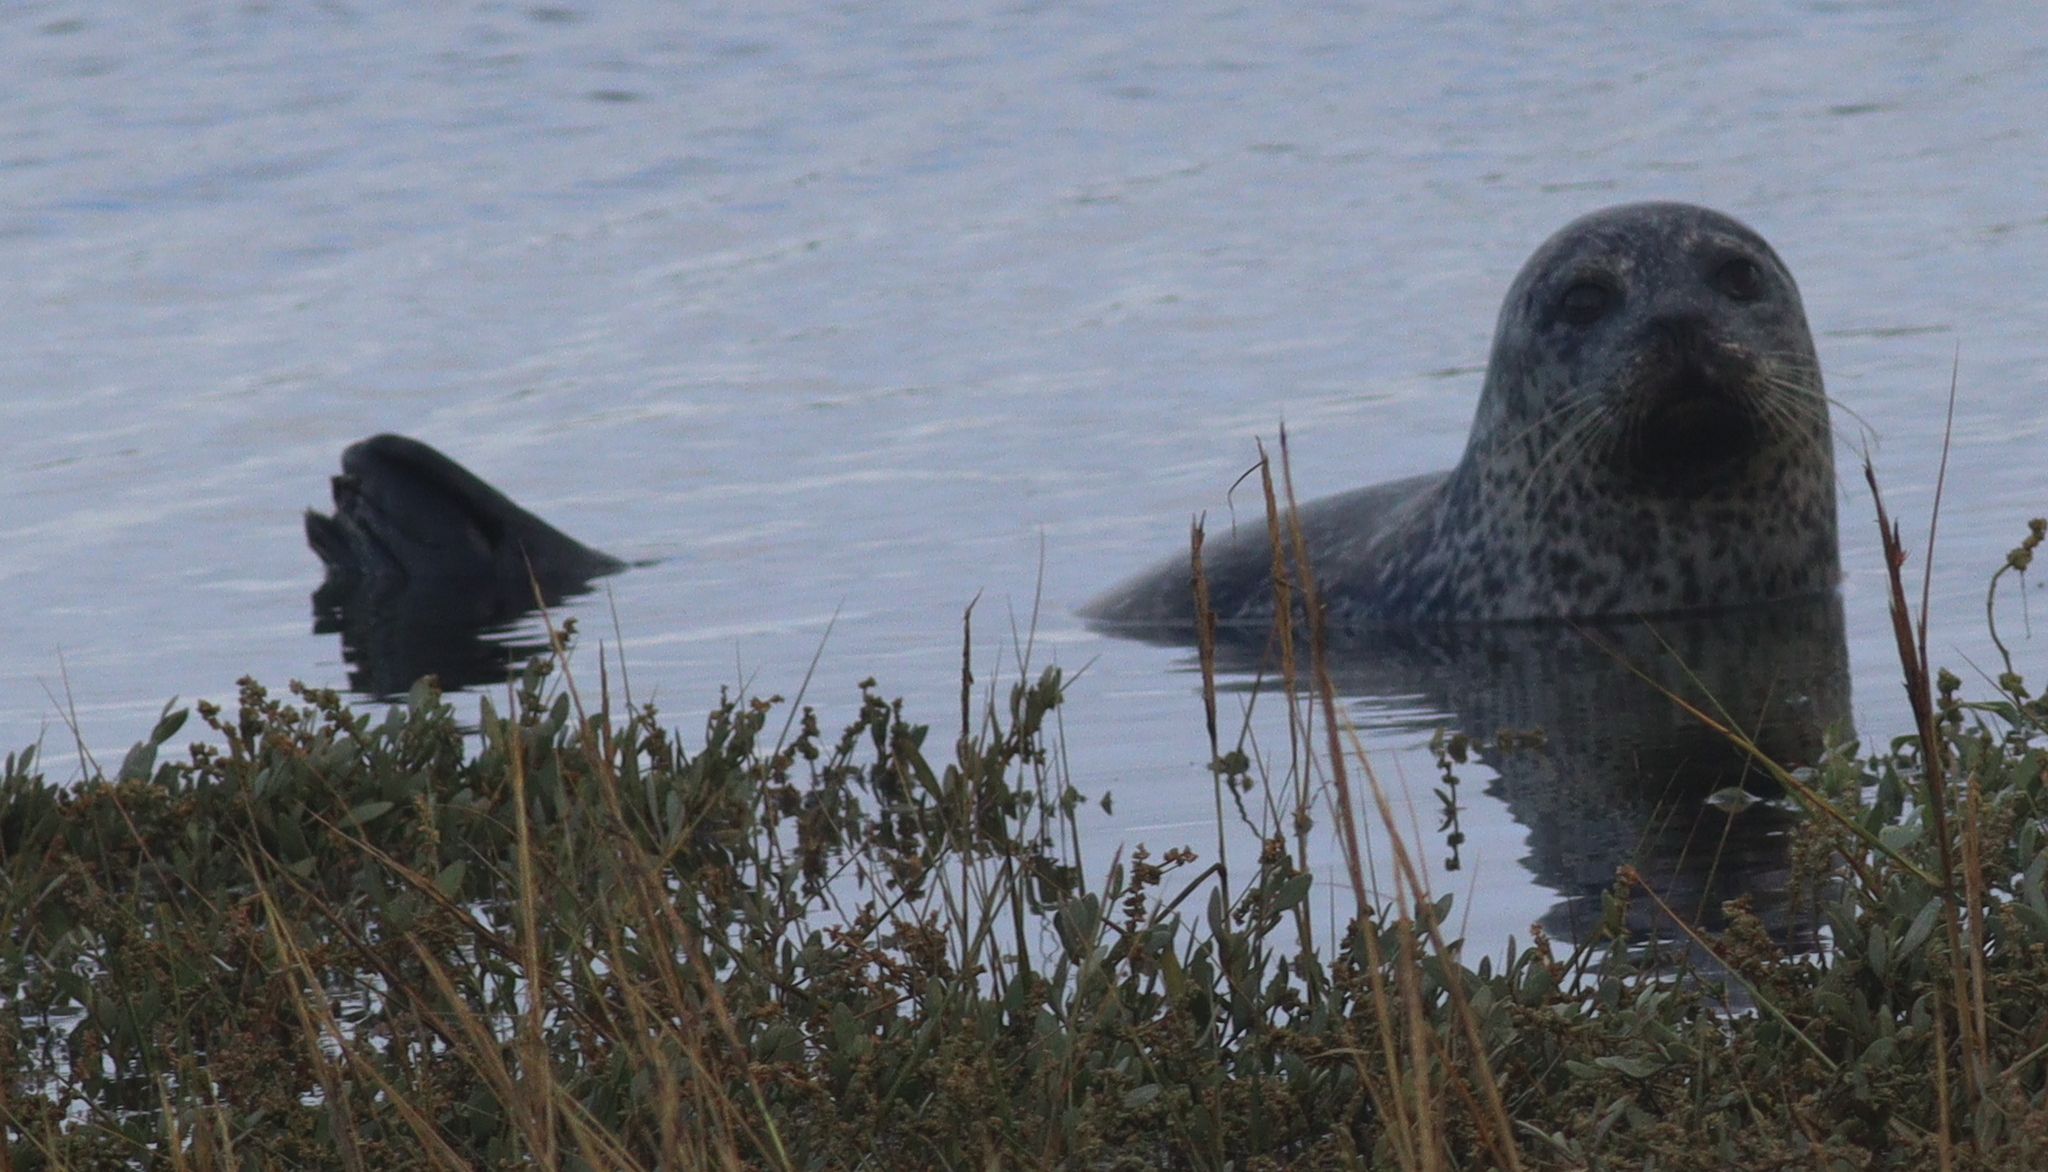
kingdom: Animalia
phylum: Chordata
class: Mammalia
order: Carnivora
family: Phocidae
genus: Phoca
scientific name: Phoca vitulina
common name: Harbor seal
